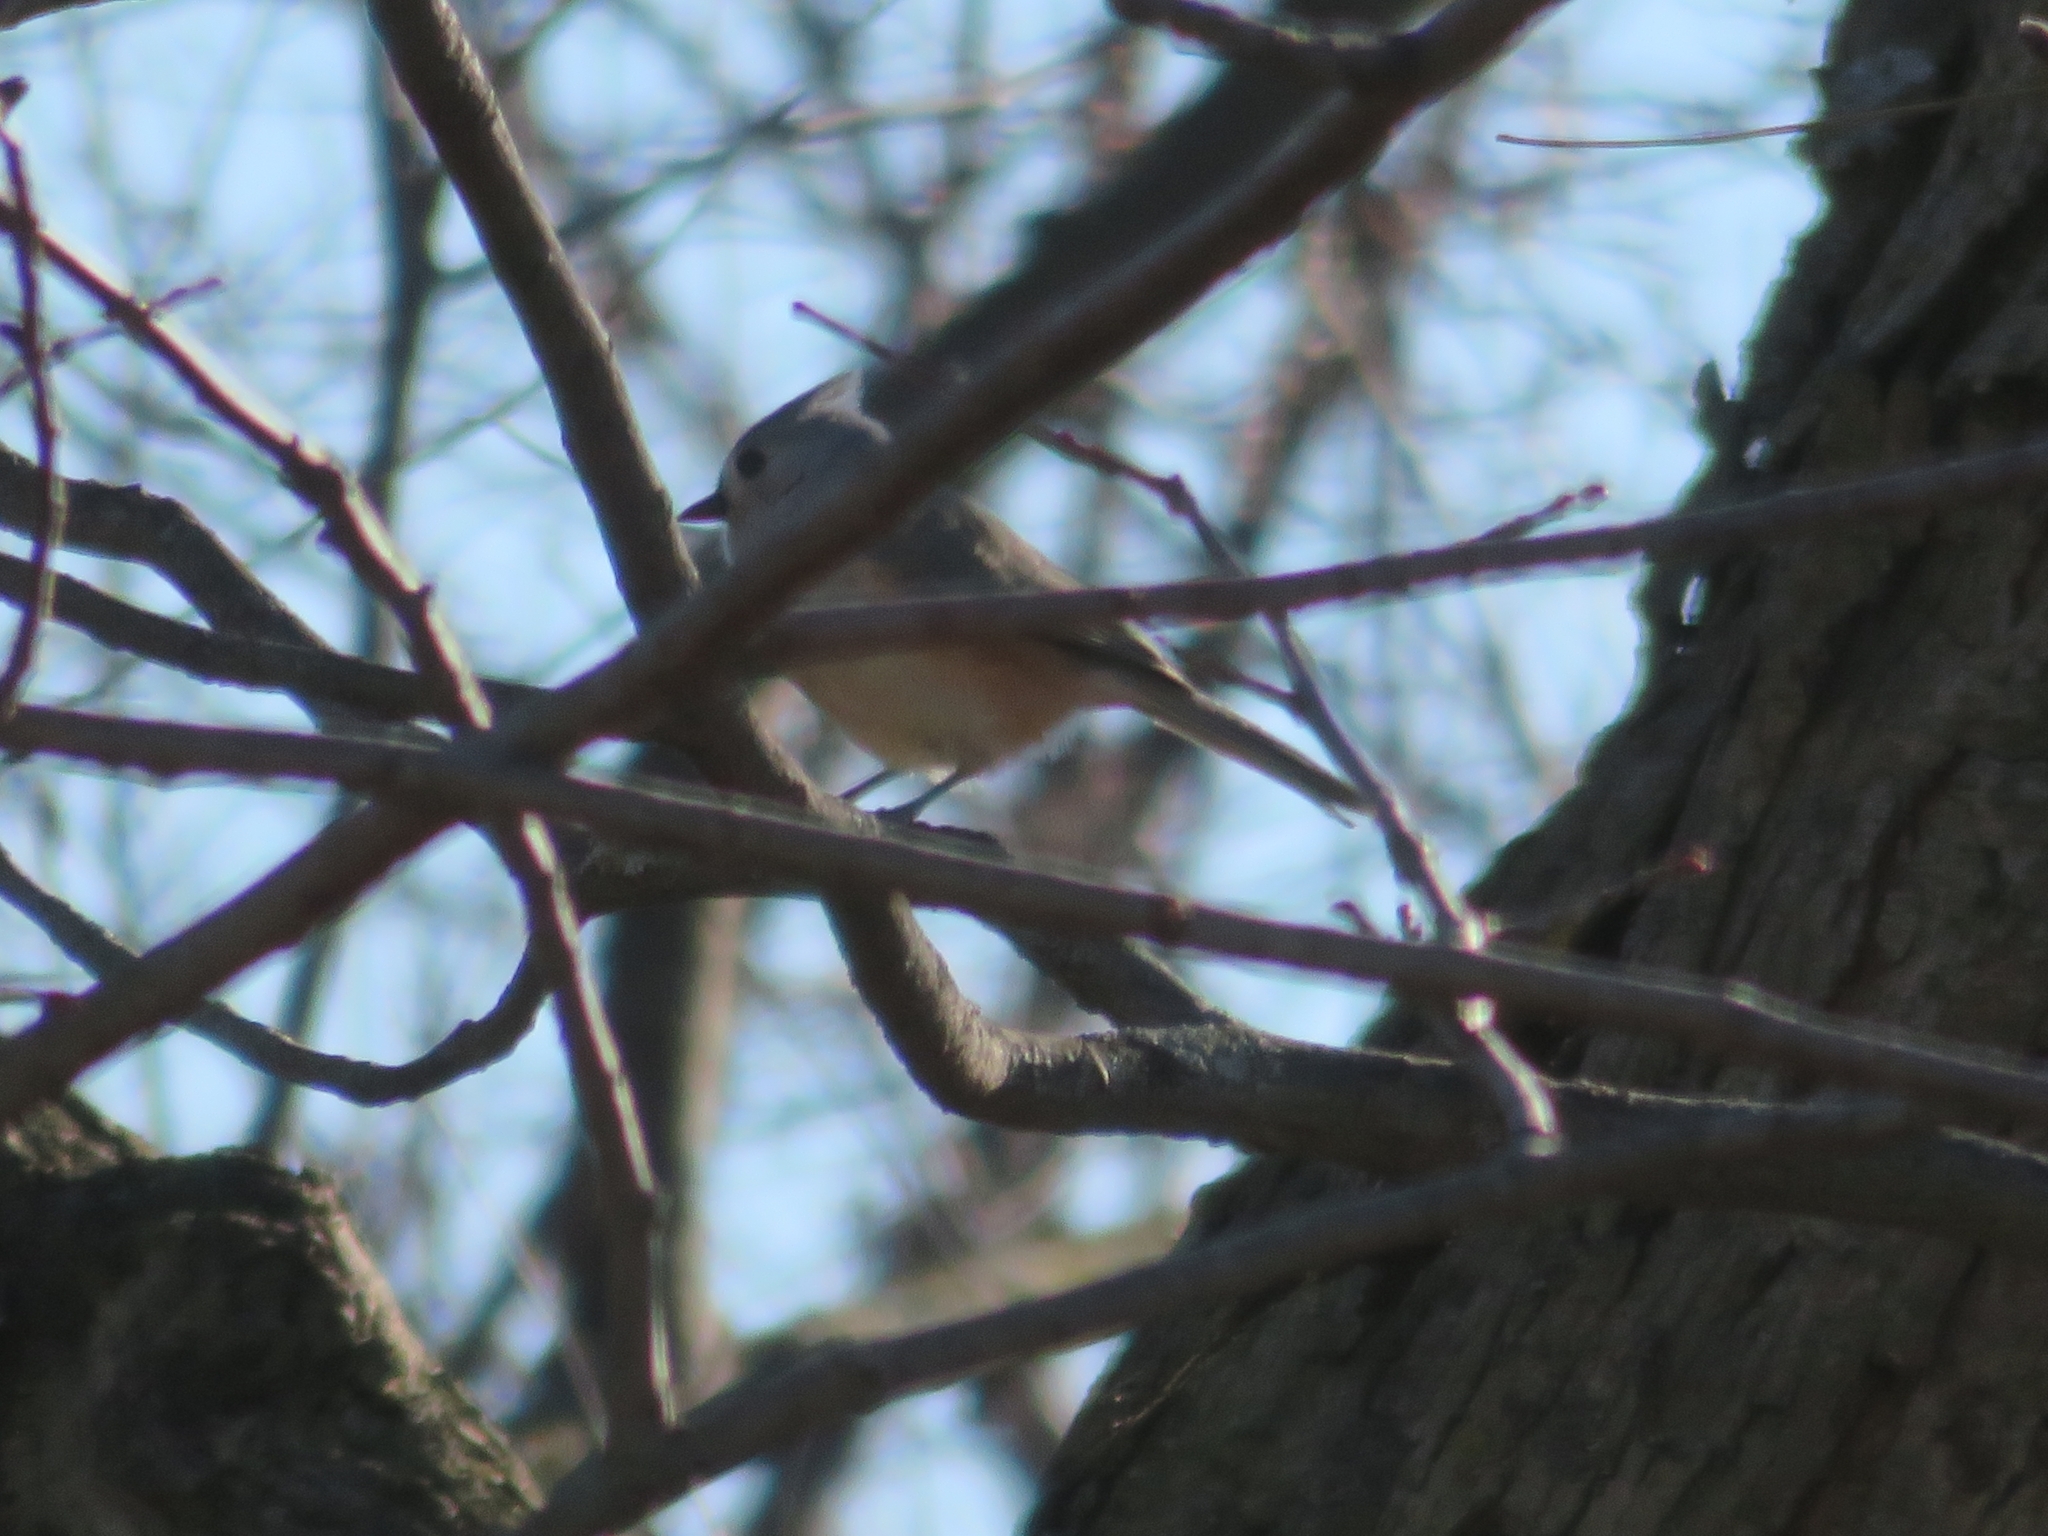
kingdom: Animalia
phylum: Chordata
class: Aves
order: Passeriformes
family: Paridae
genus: Baeolophus
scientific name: Baeolophus bicolor
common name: Tufted titmouse
